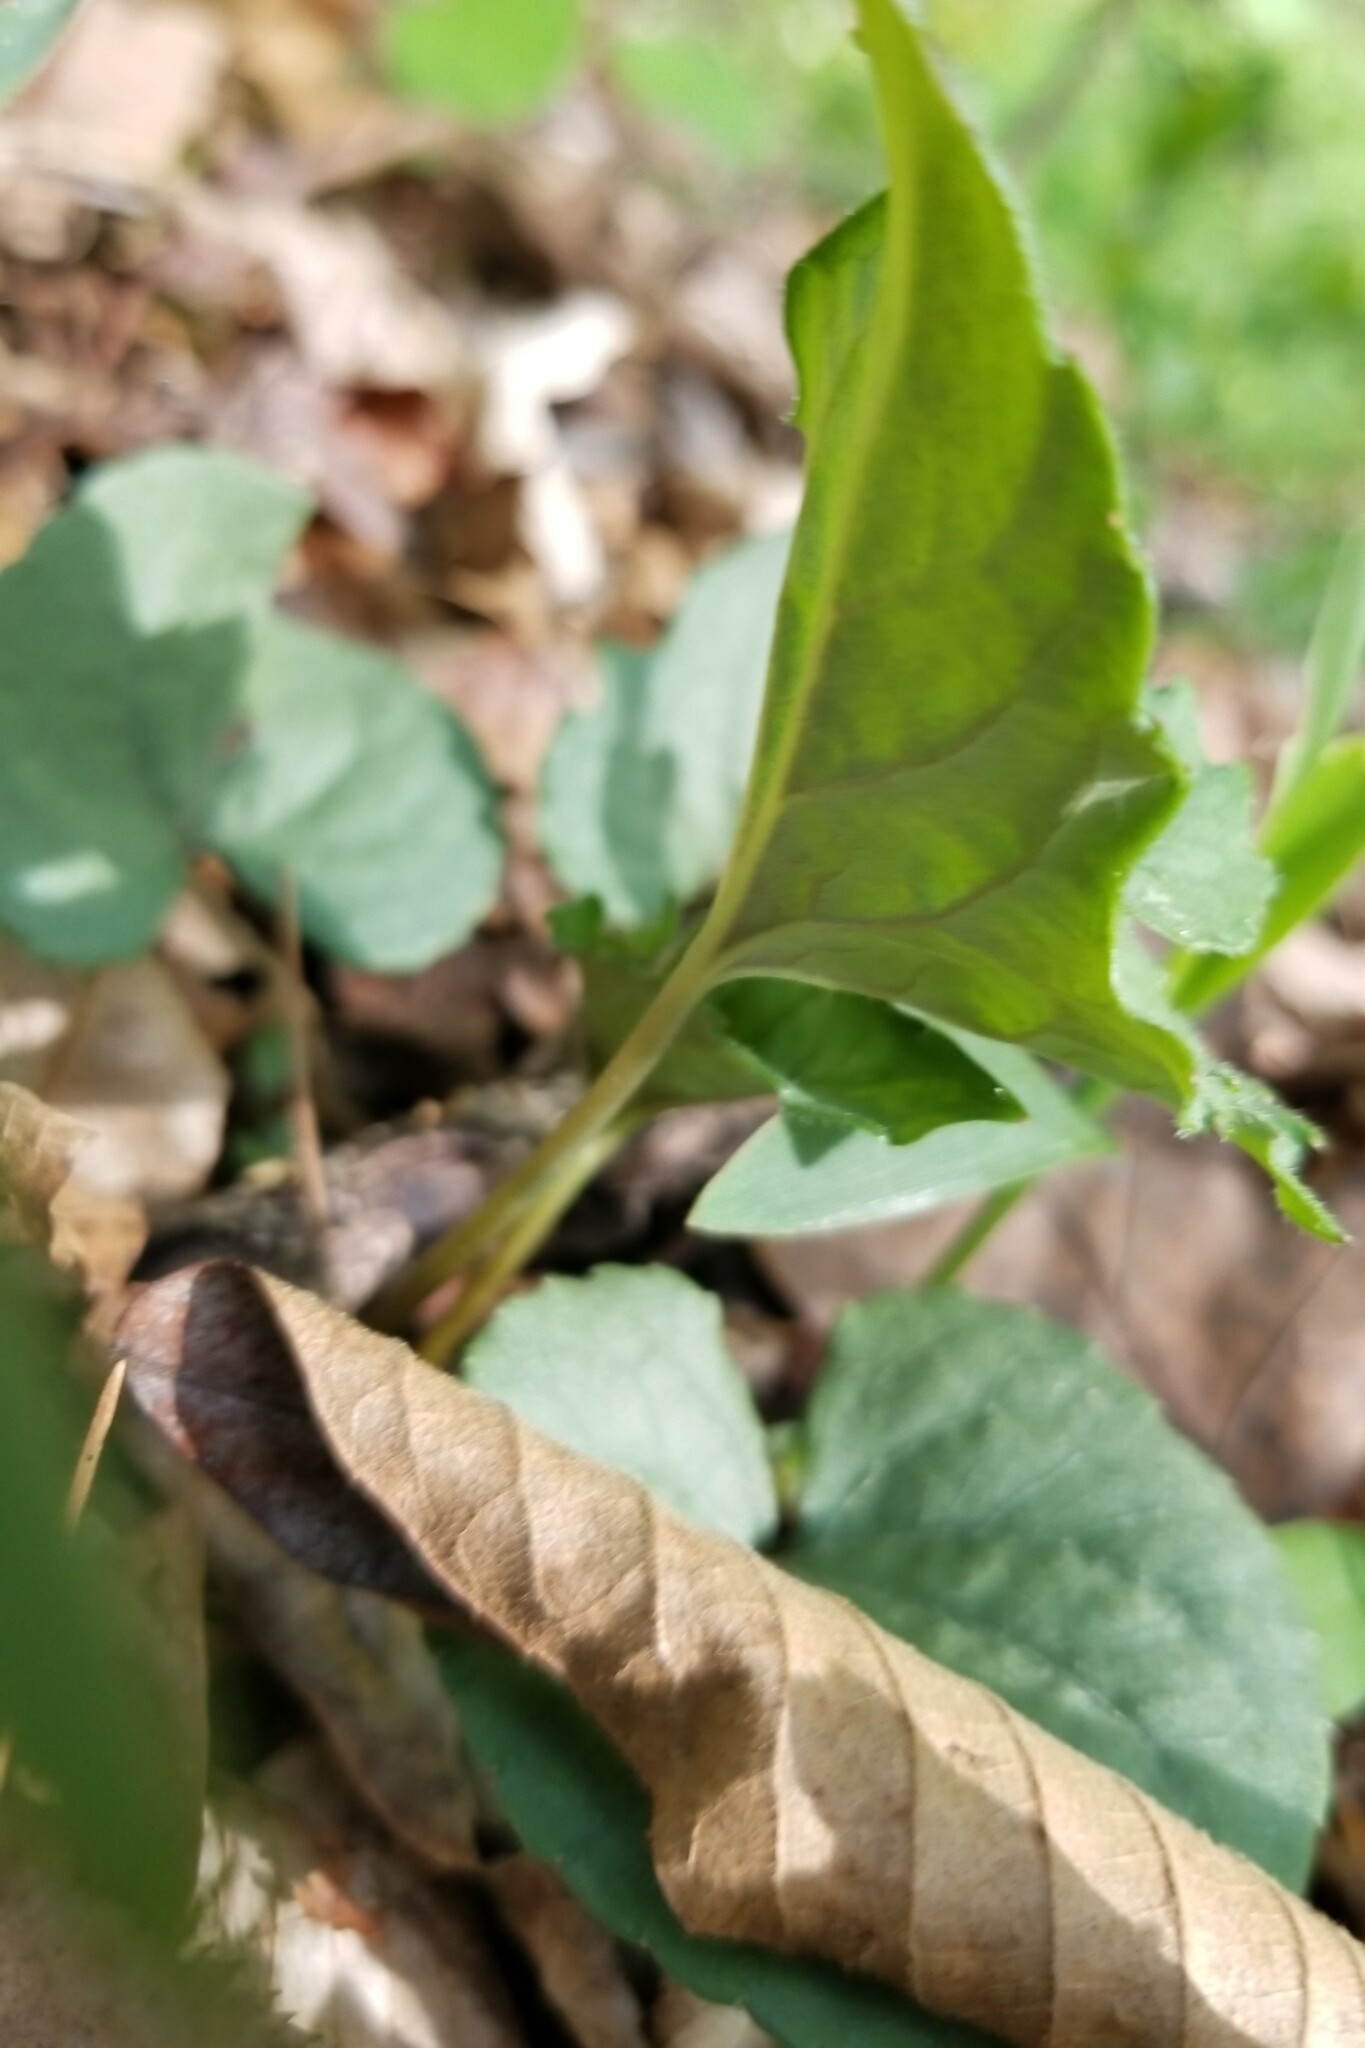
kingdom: Plantae
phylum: Tracheophyta
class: Magnoliopsida
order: Malpighiales
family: Violaceae
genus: Viola
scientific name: Viola dissita
